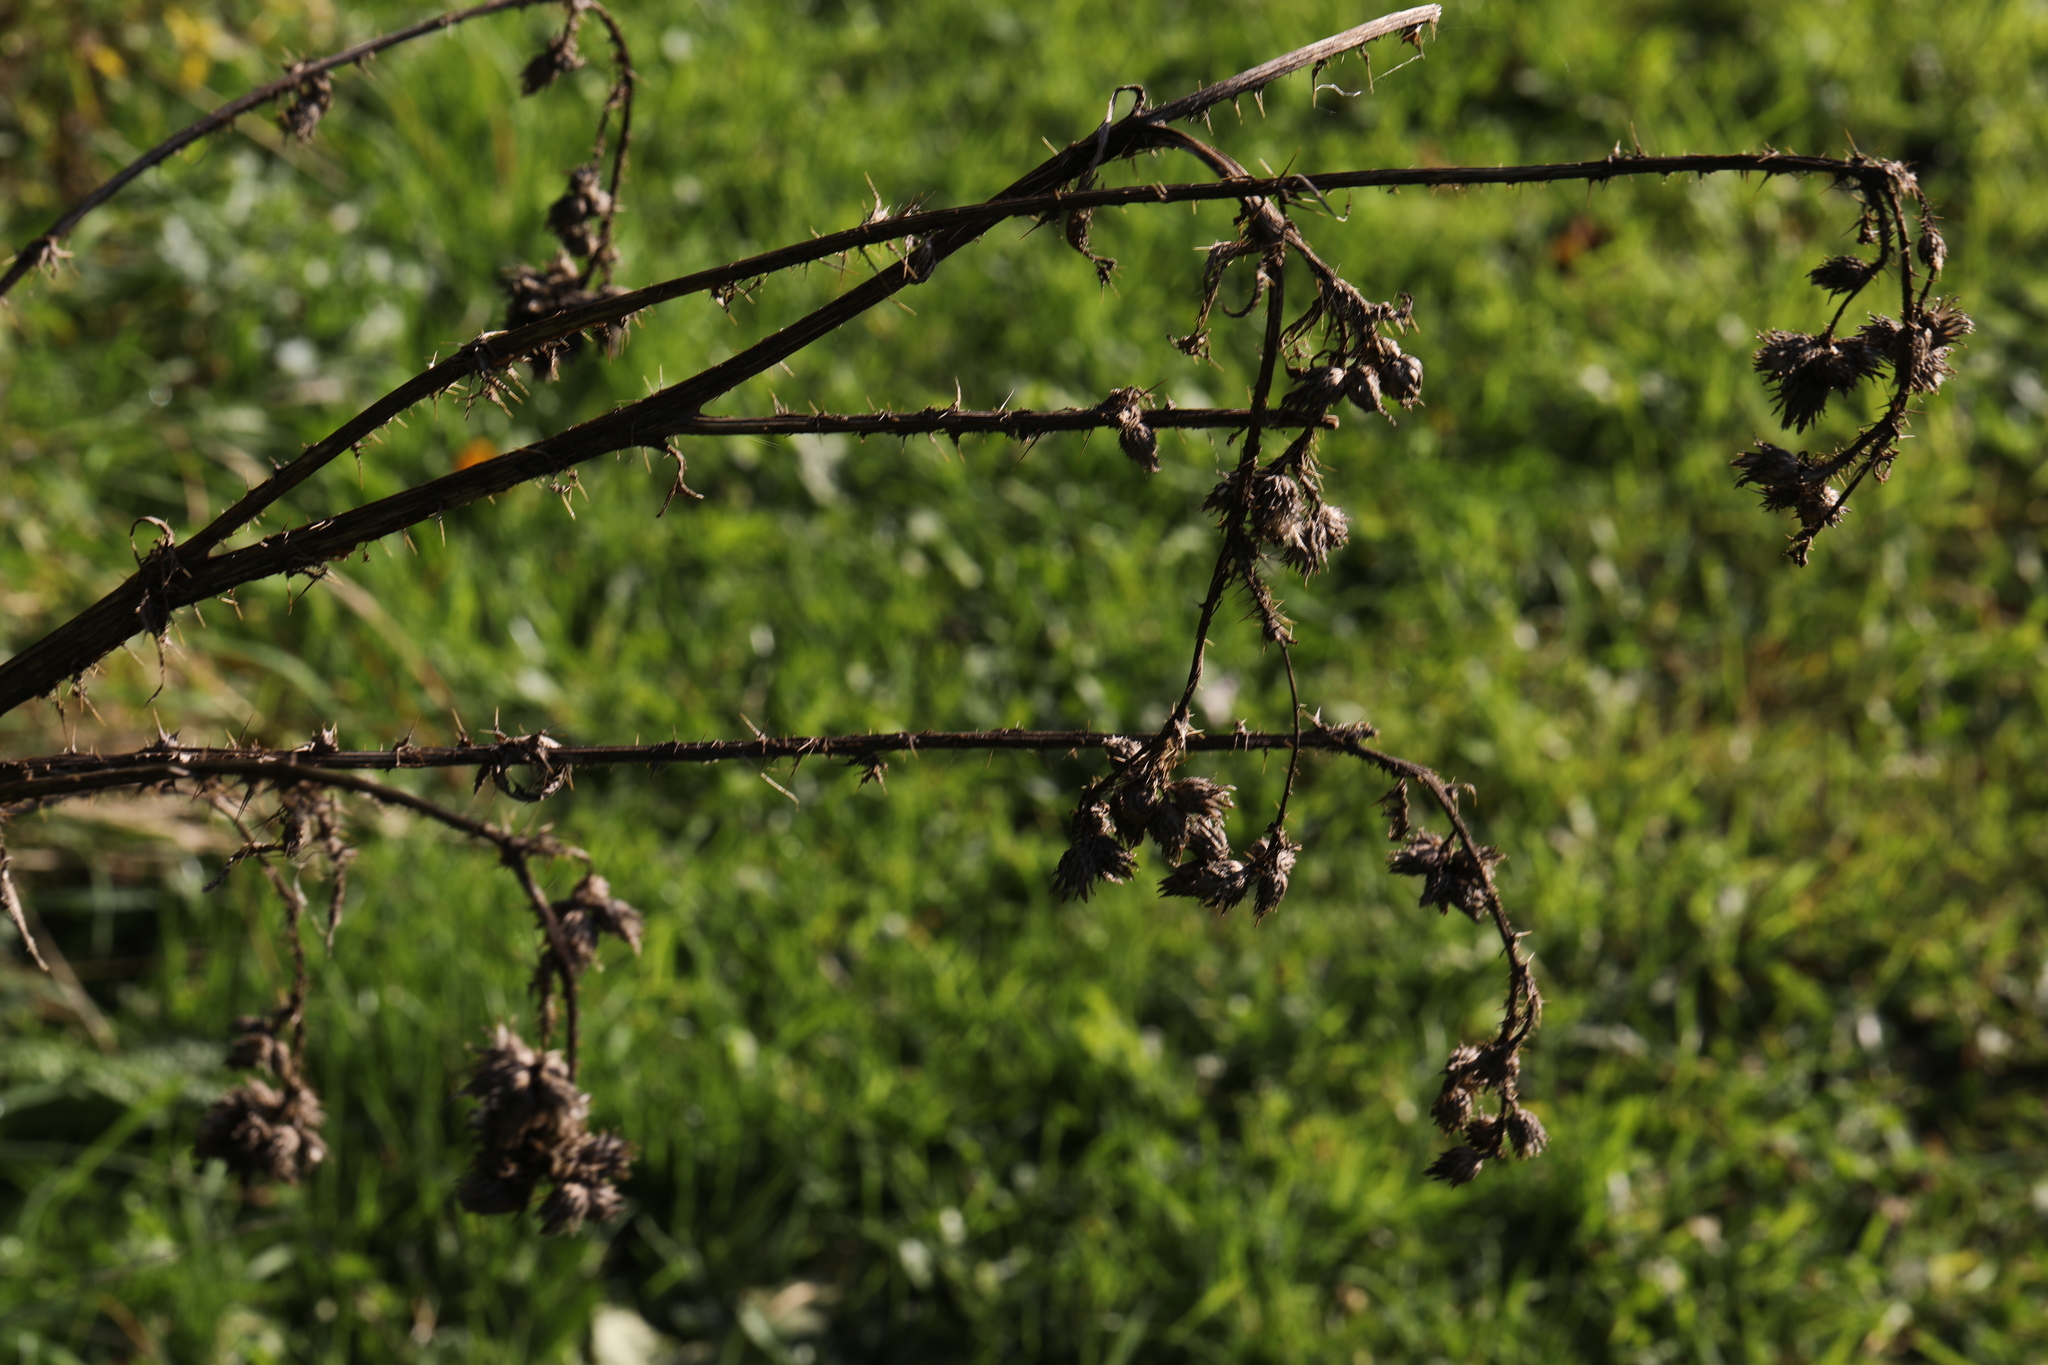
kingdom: Plantae
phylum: Tracheophyta
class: Magnoliopsida
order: Asterales
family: Asteraceae
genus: Cirsium
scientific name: Cirsium palustre
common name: Marsh thistle
